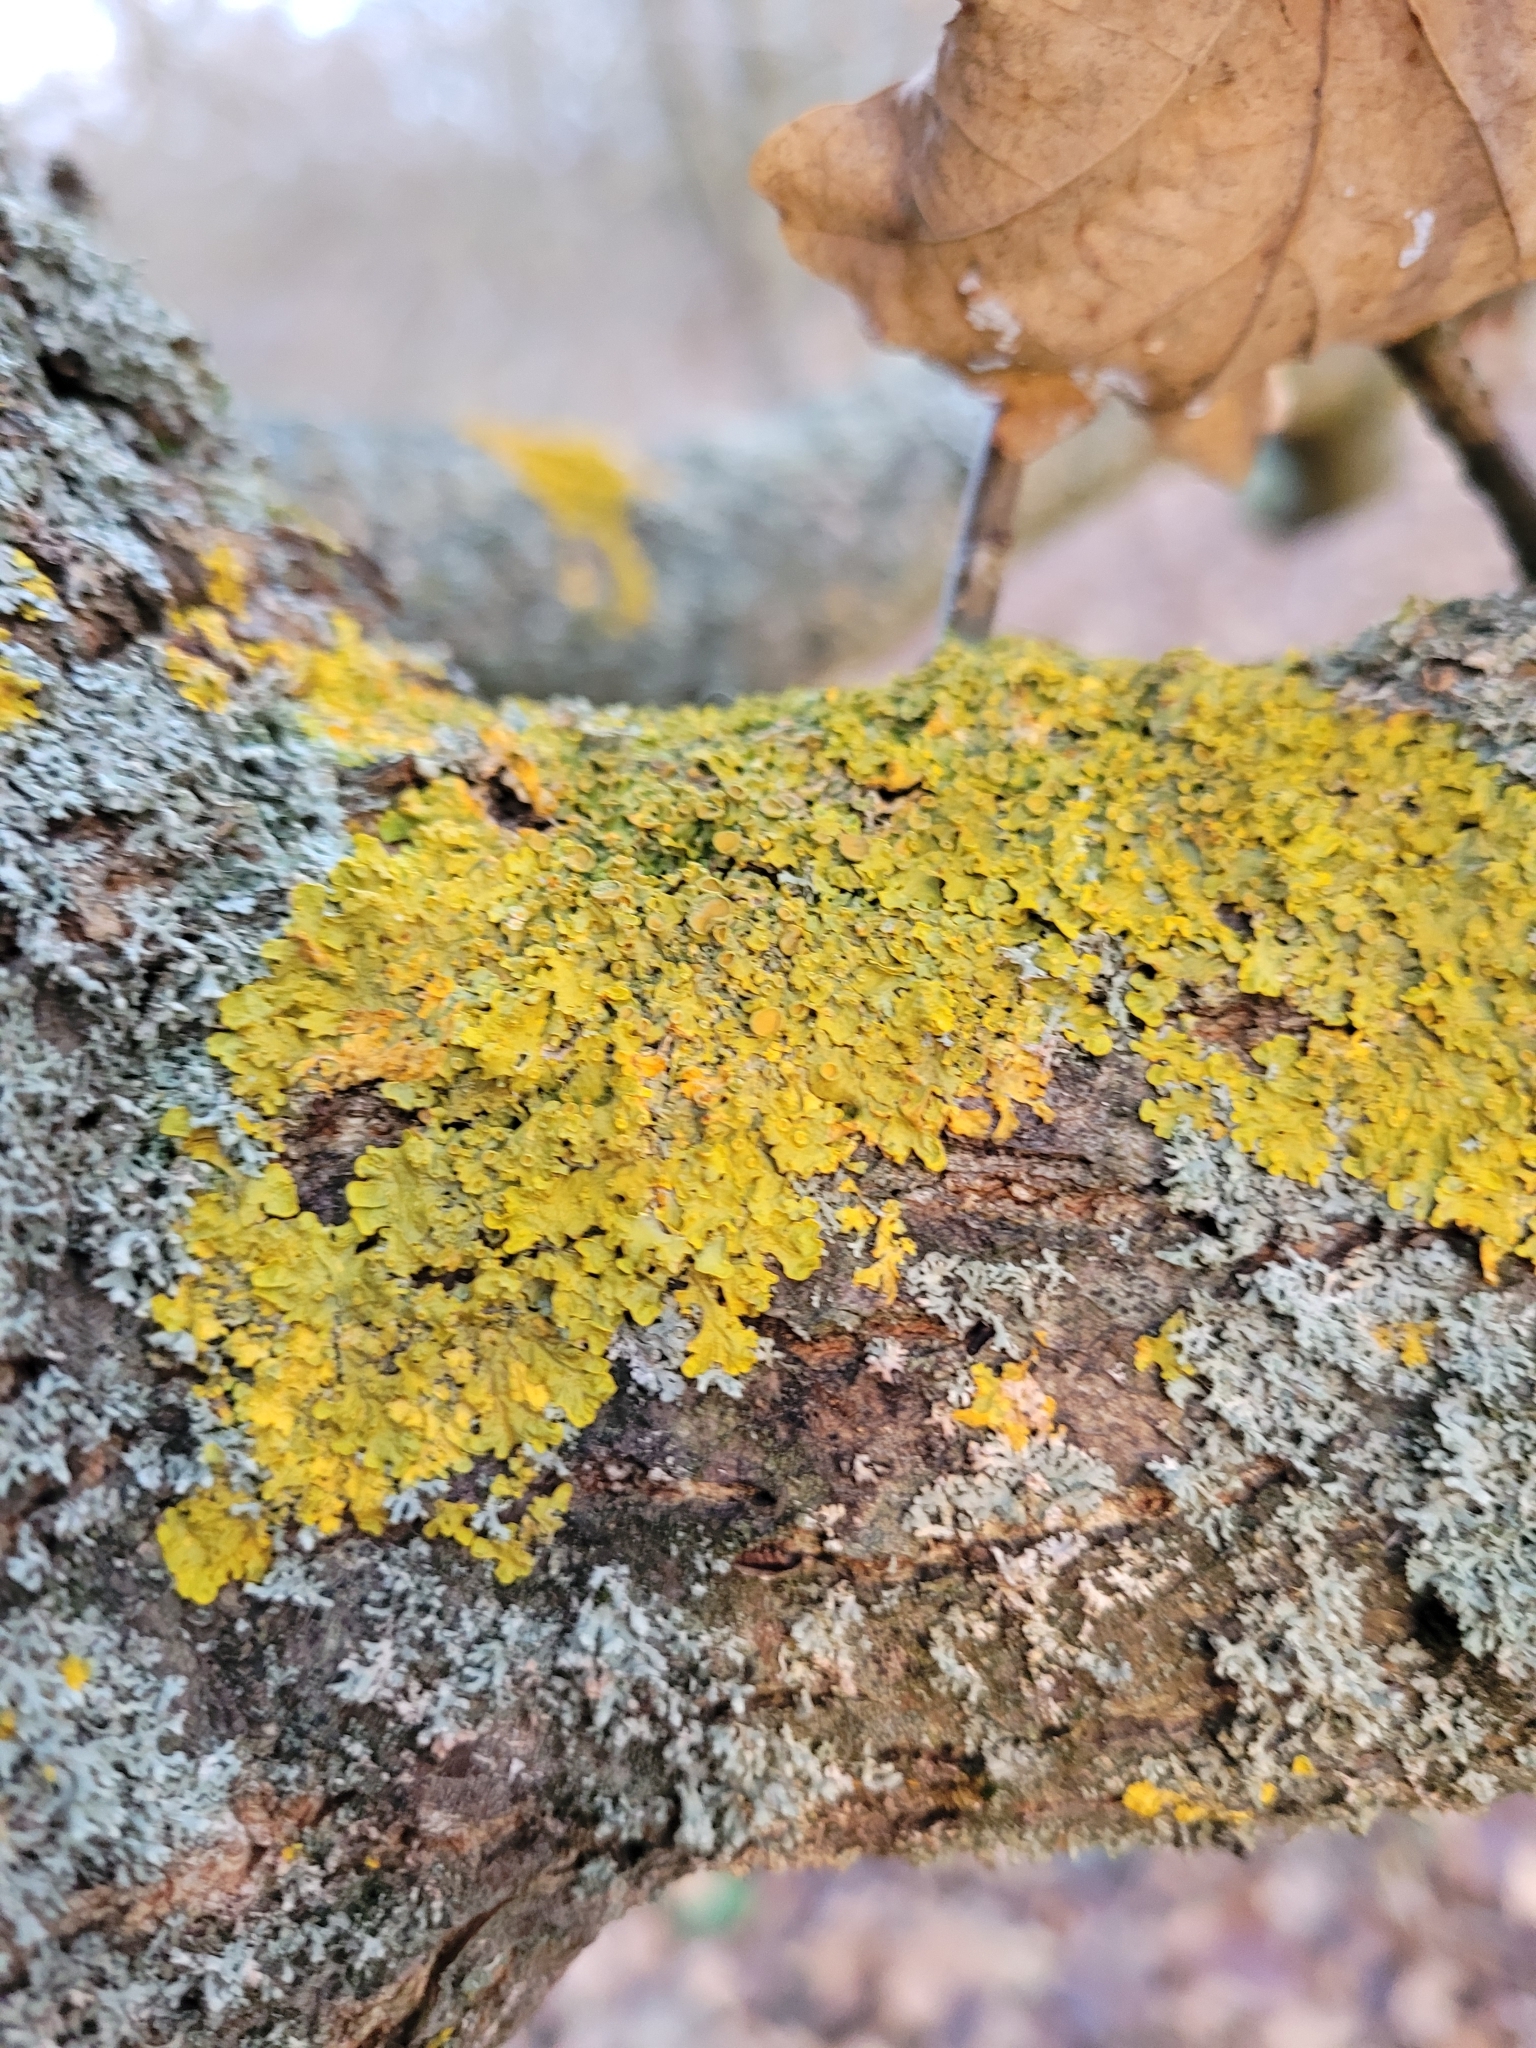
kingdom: Fungi
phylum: Ascomycota
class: Lecanoromycetes
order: Teloschistales
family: Teloschistaceae
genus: Xanthoria
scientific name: Xanthoria parietina
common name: Common orange lichen
